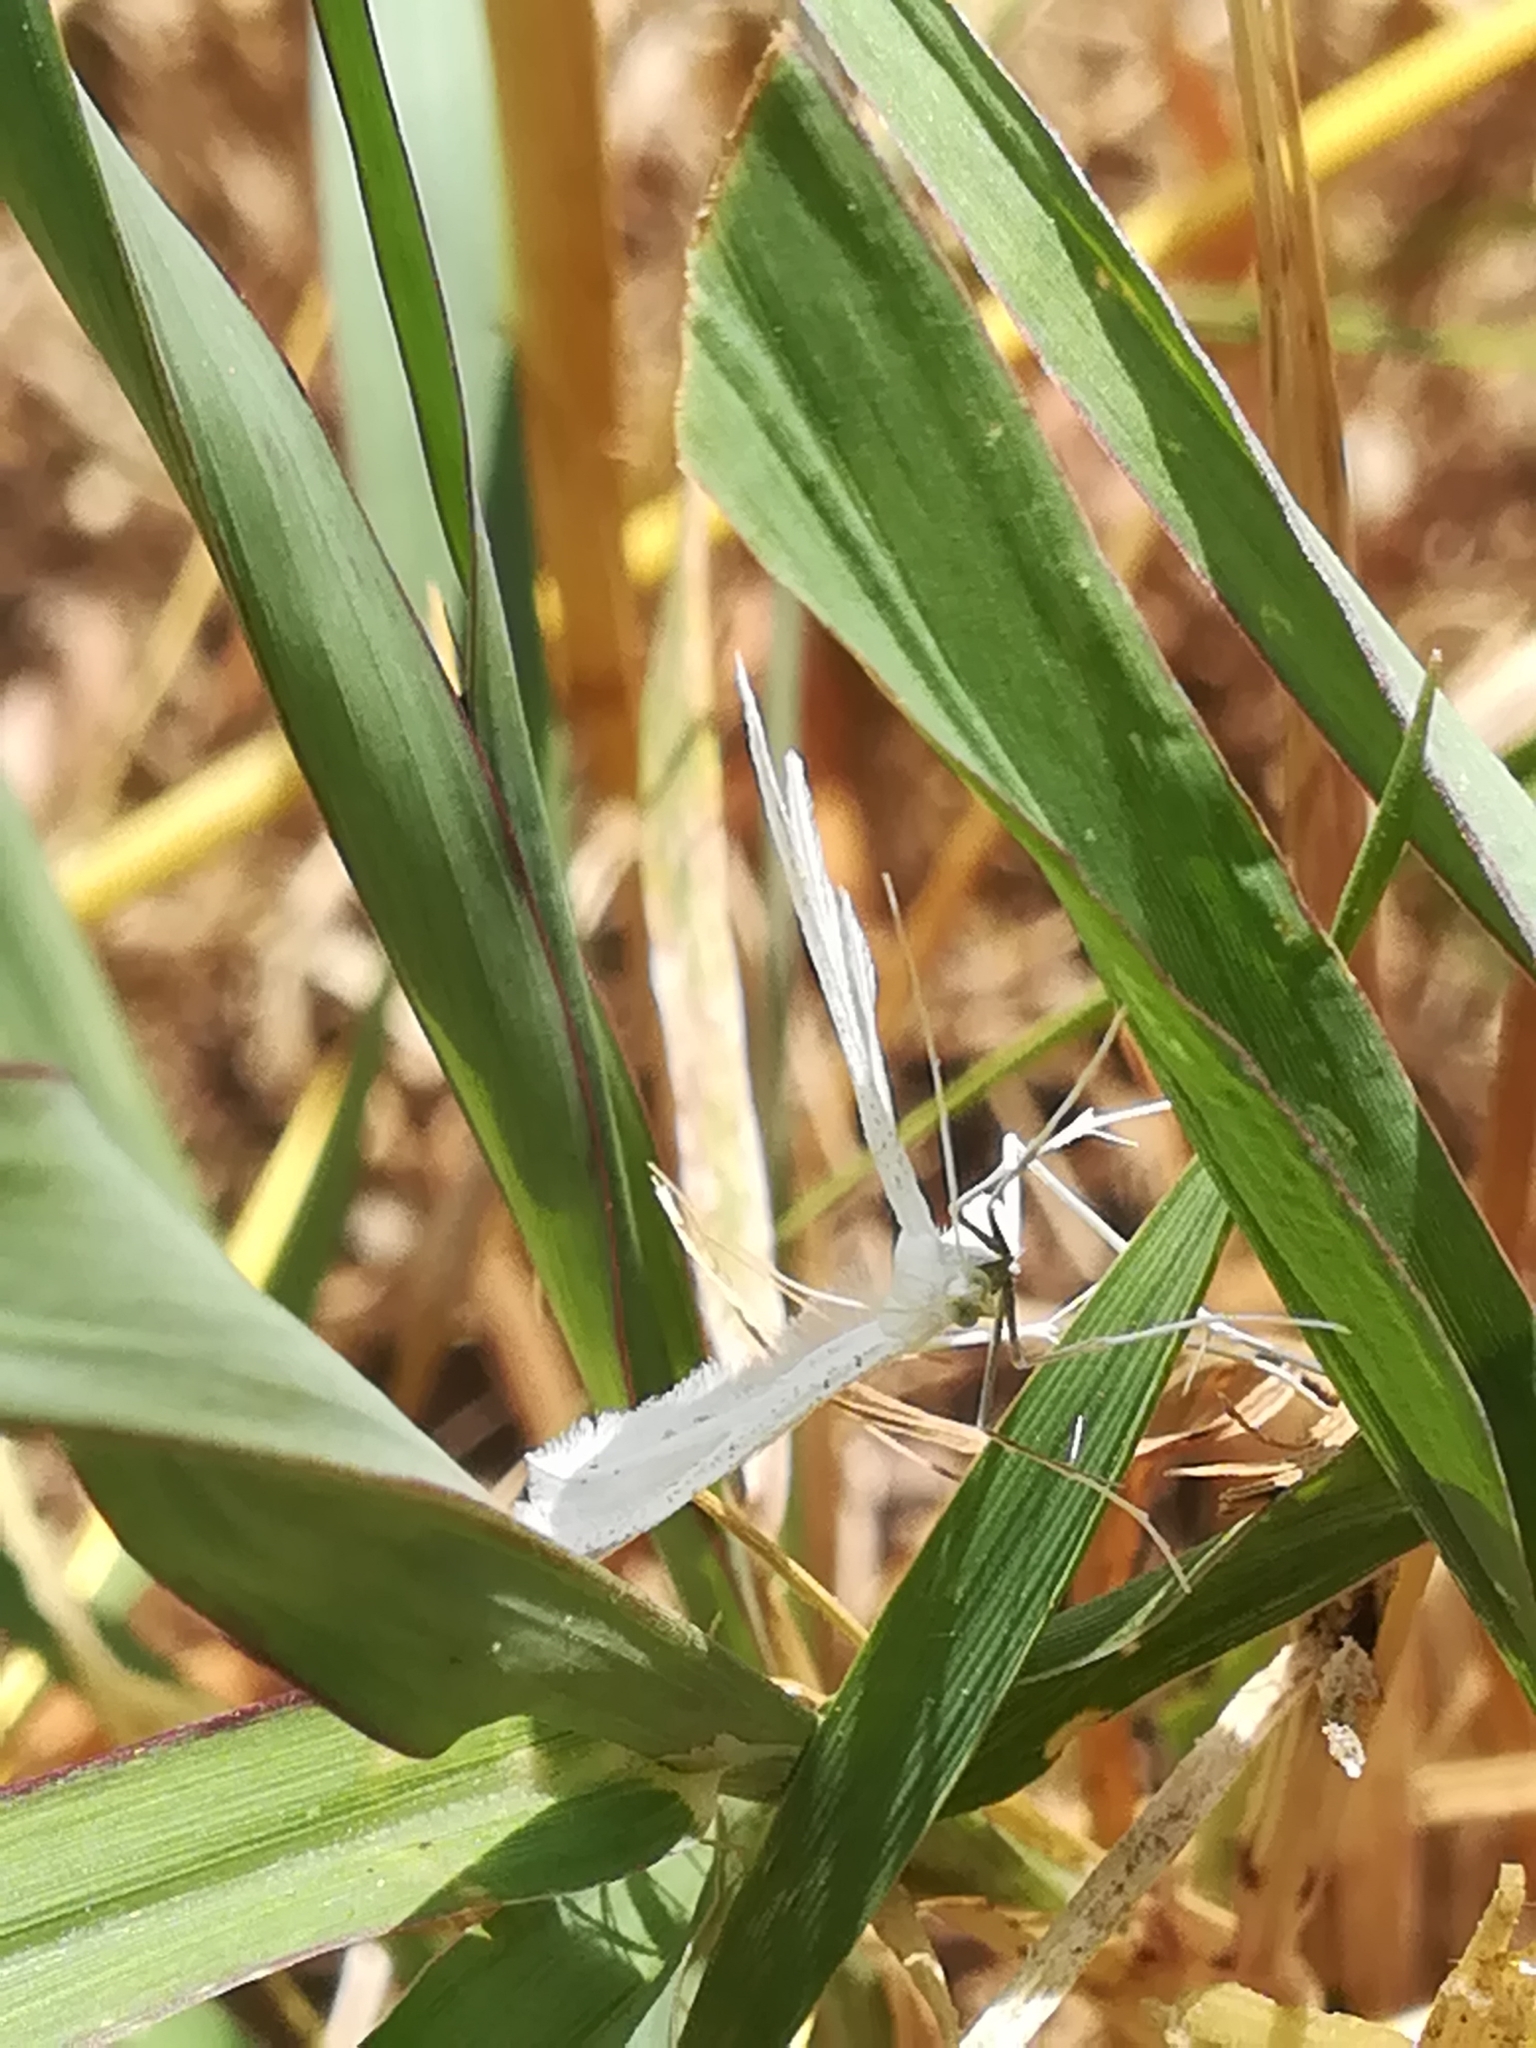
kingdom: Animalia
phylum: Arthropoda
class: Insecta
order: Lepidoptera
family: Pterophoridae
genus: Pterophorus
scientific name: Pterophorus pentadactyla
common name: White plume moth
